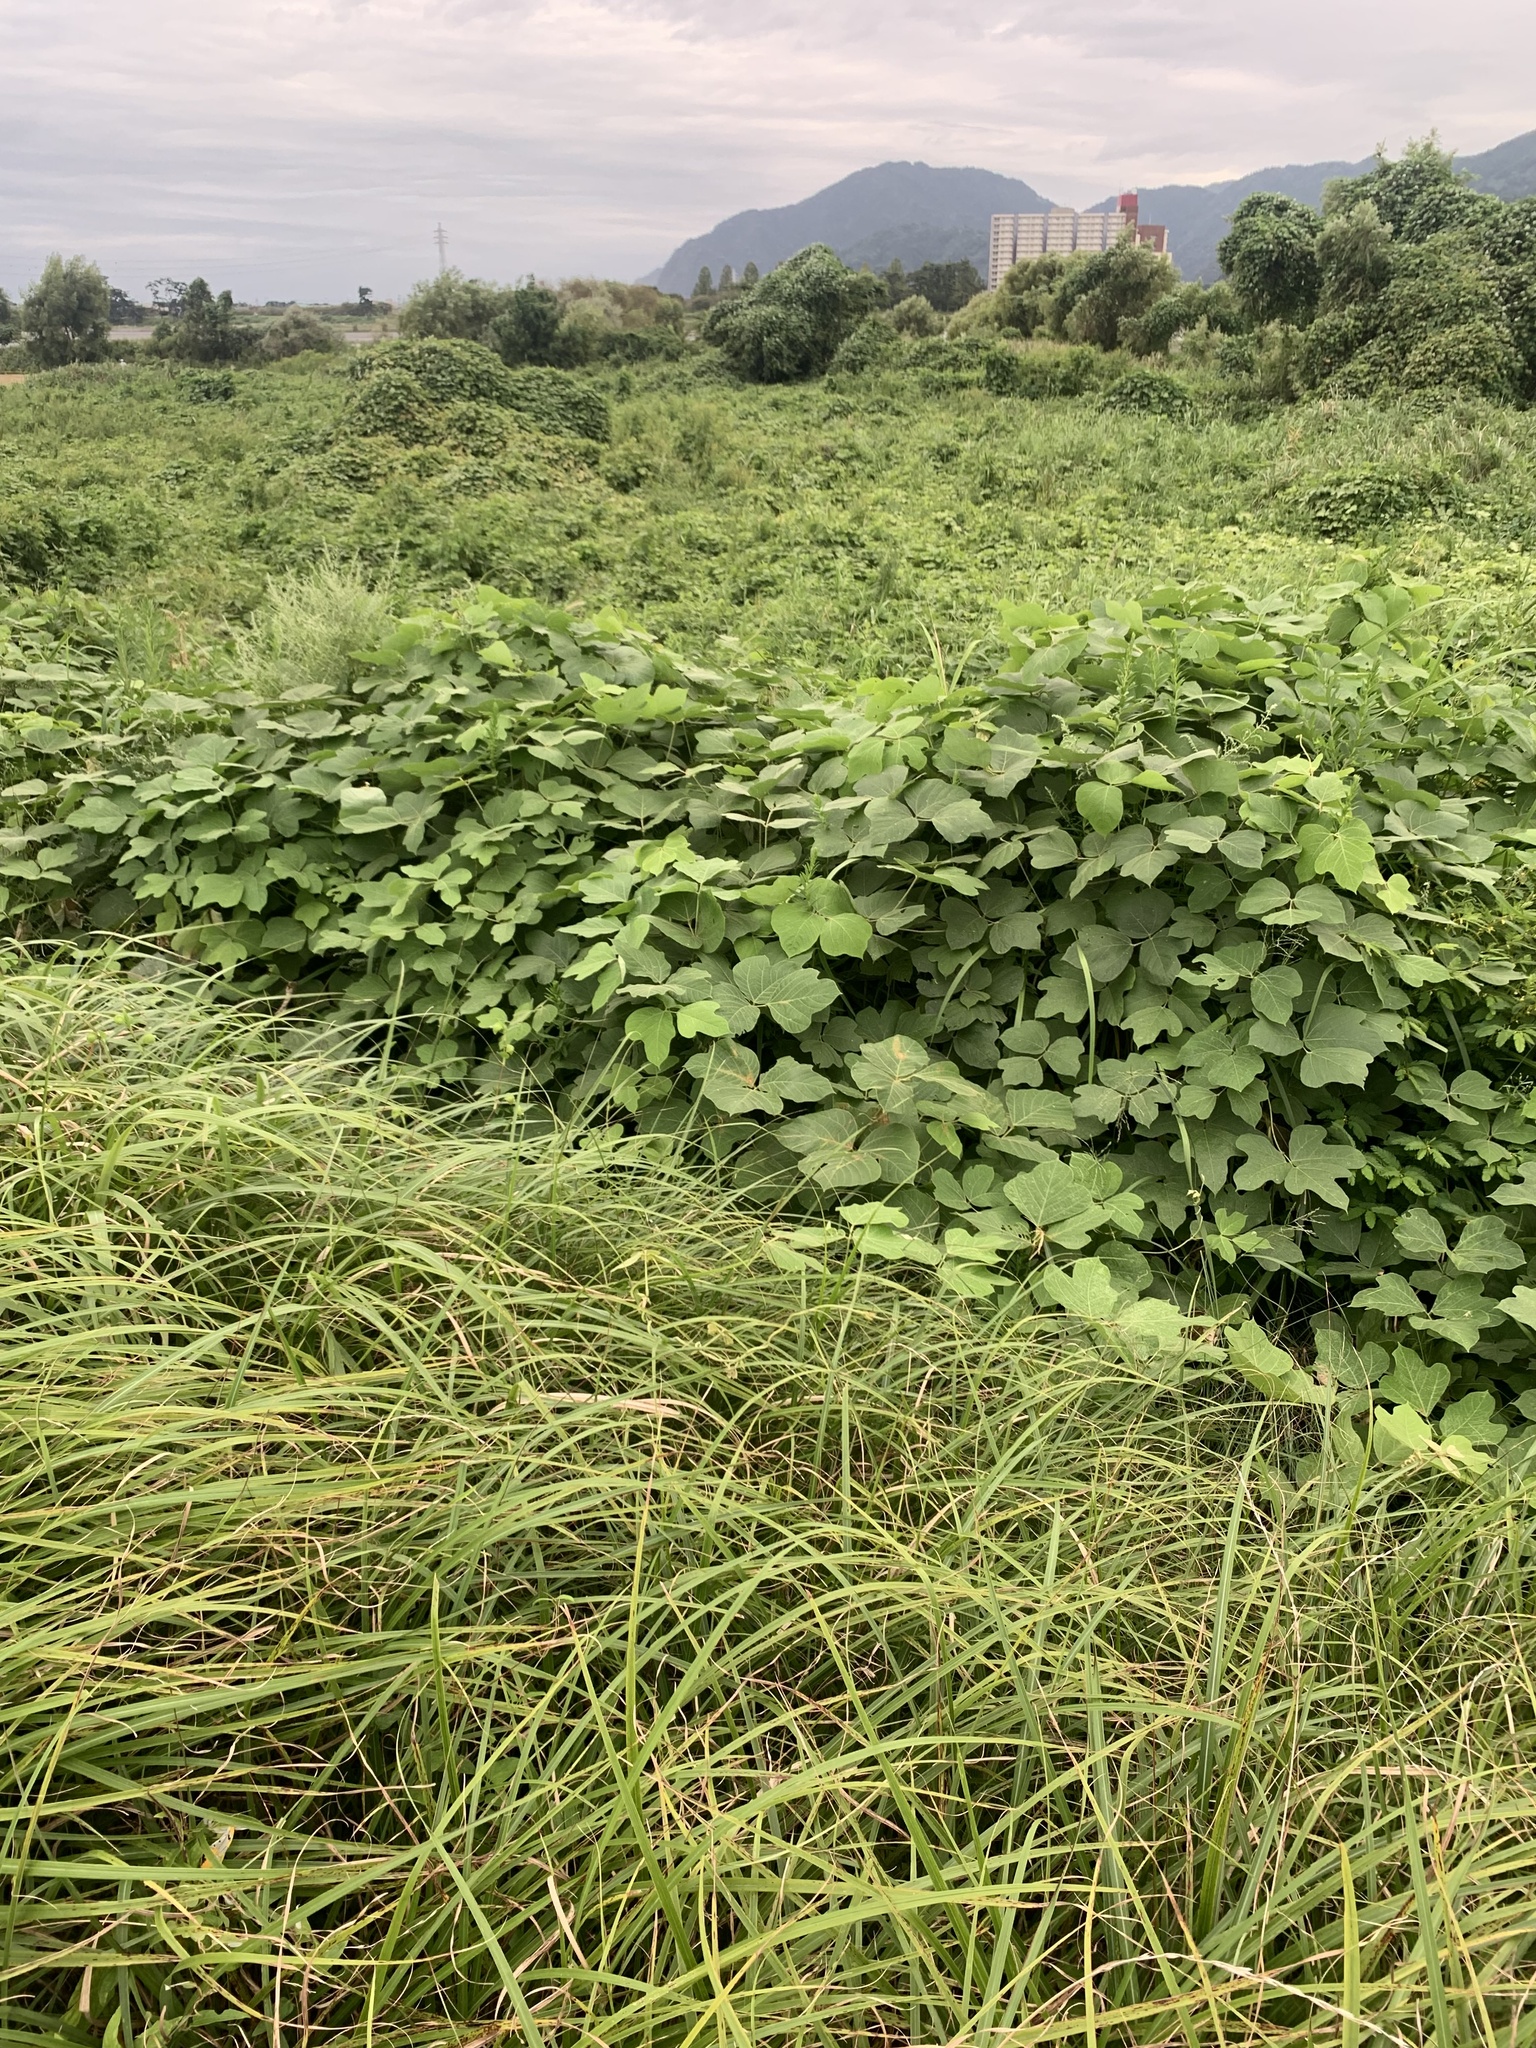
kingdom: Animalia
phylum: Arthropoda
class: Insecta
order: Orthoptera
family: Phalangopsidae
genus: Meloimorpha
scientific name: Meloimorpha japonica
